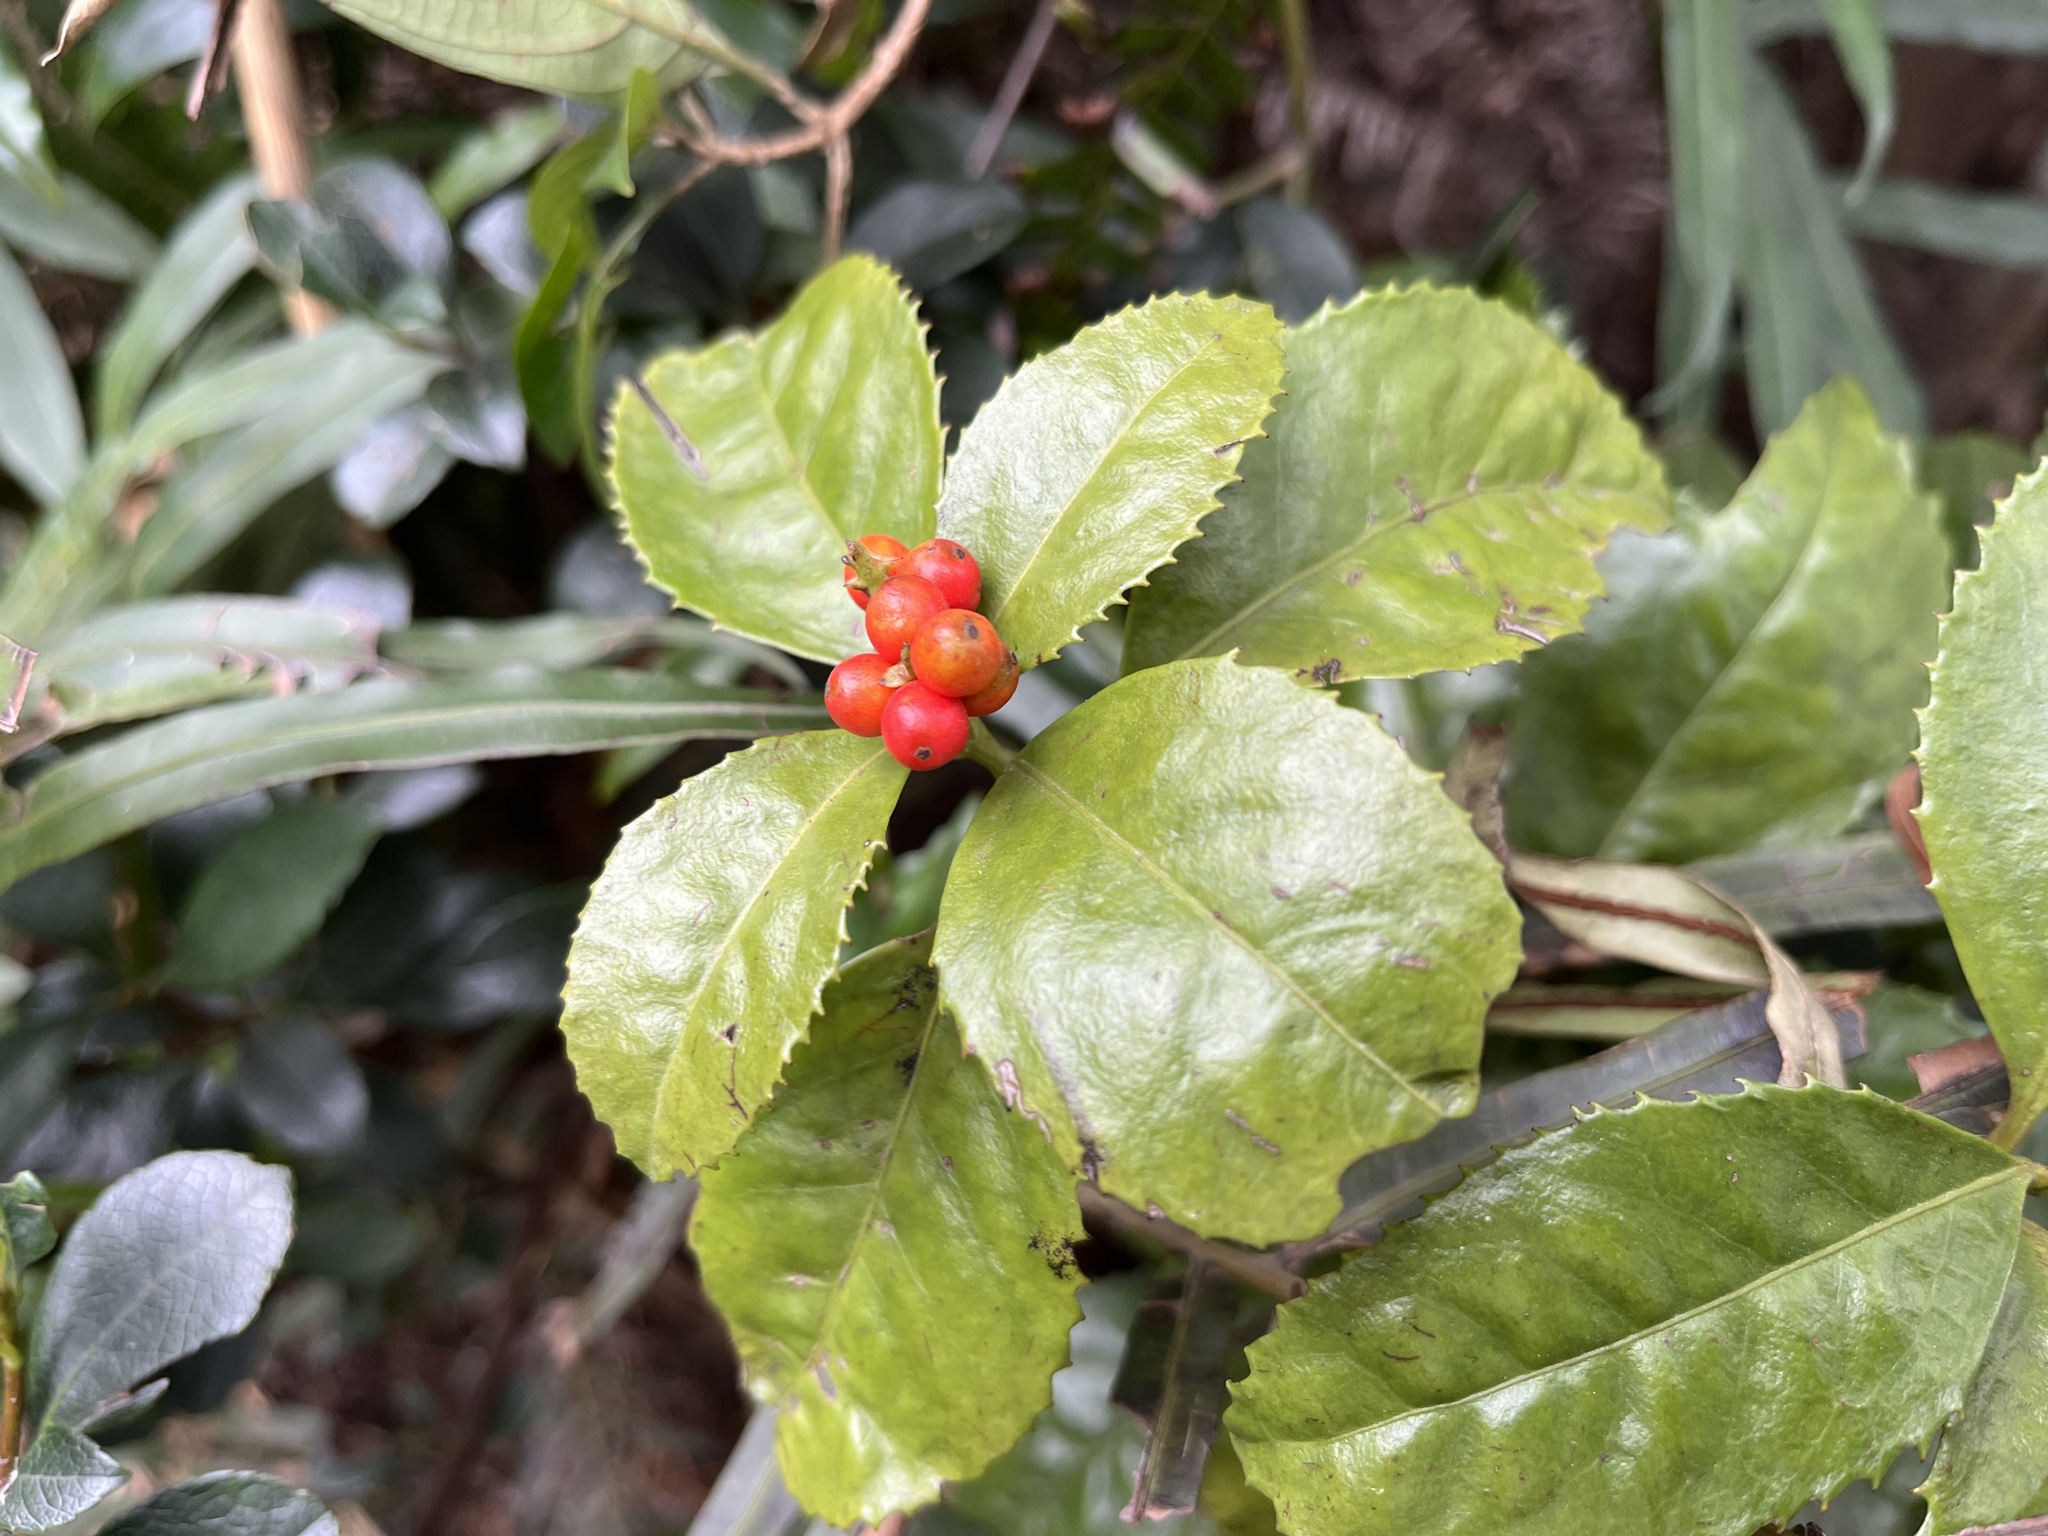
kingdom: Plantae
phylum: Tracheophyta
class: Magnoliopsida
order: Chloranthales
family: Chloranthaceae
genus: Sarcandra
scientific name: Sarcandra glabra
